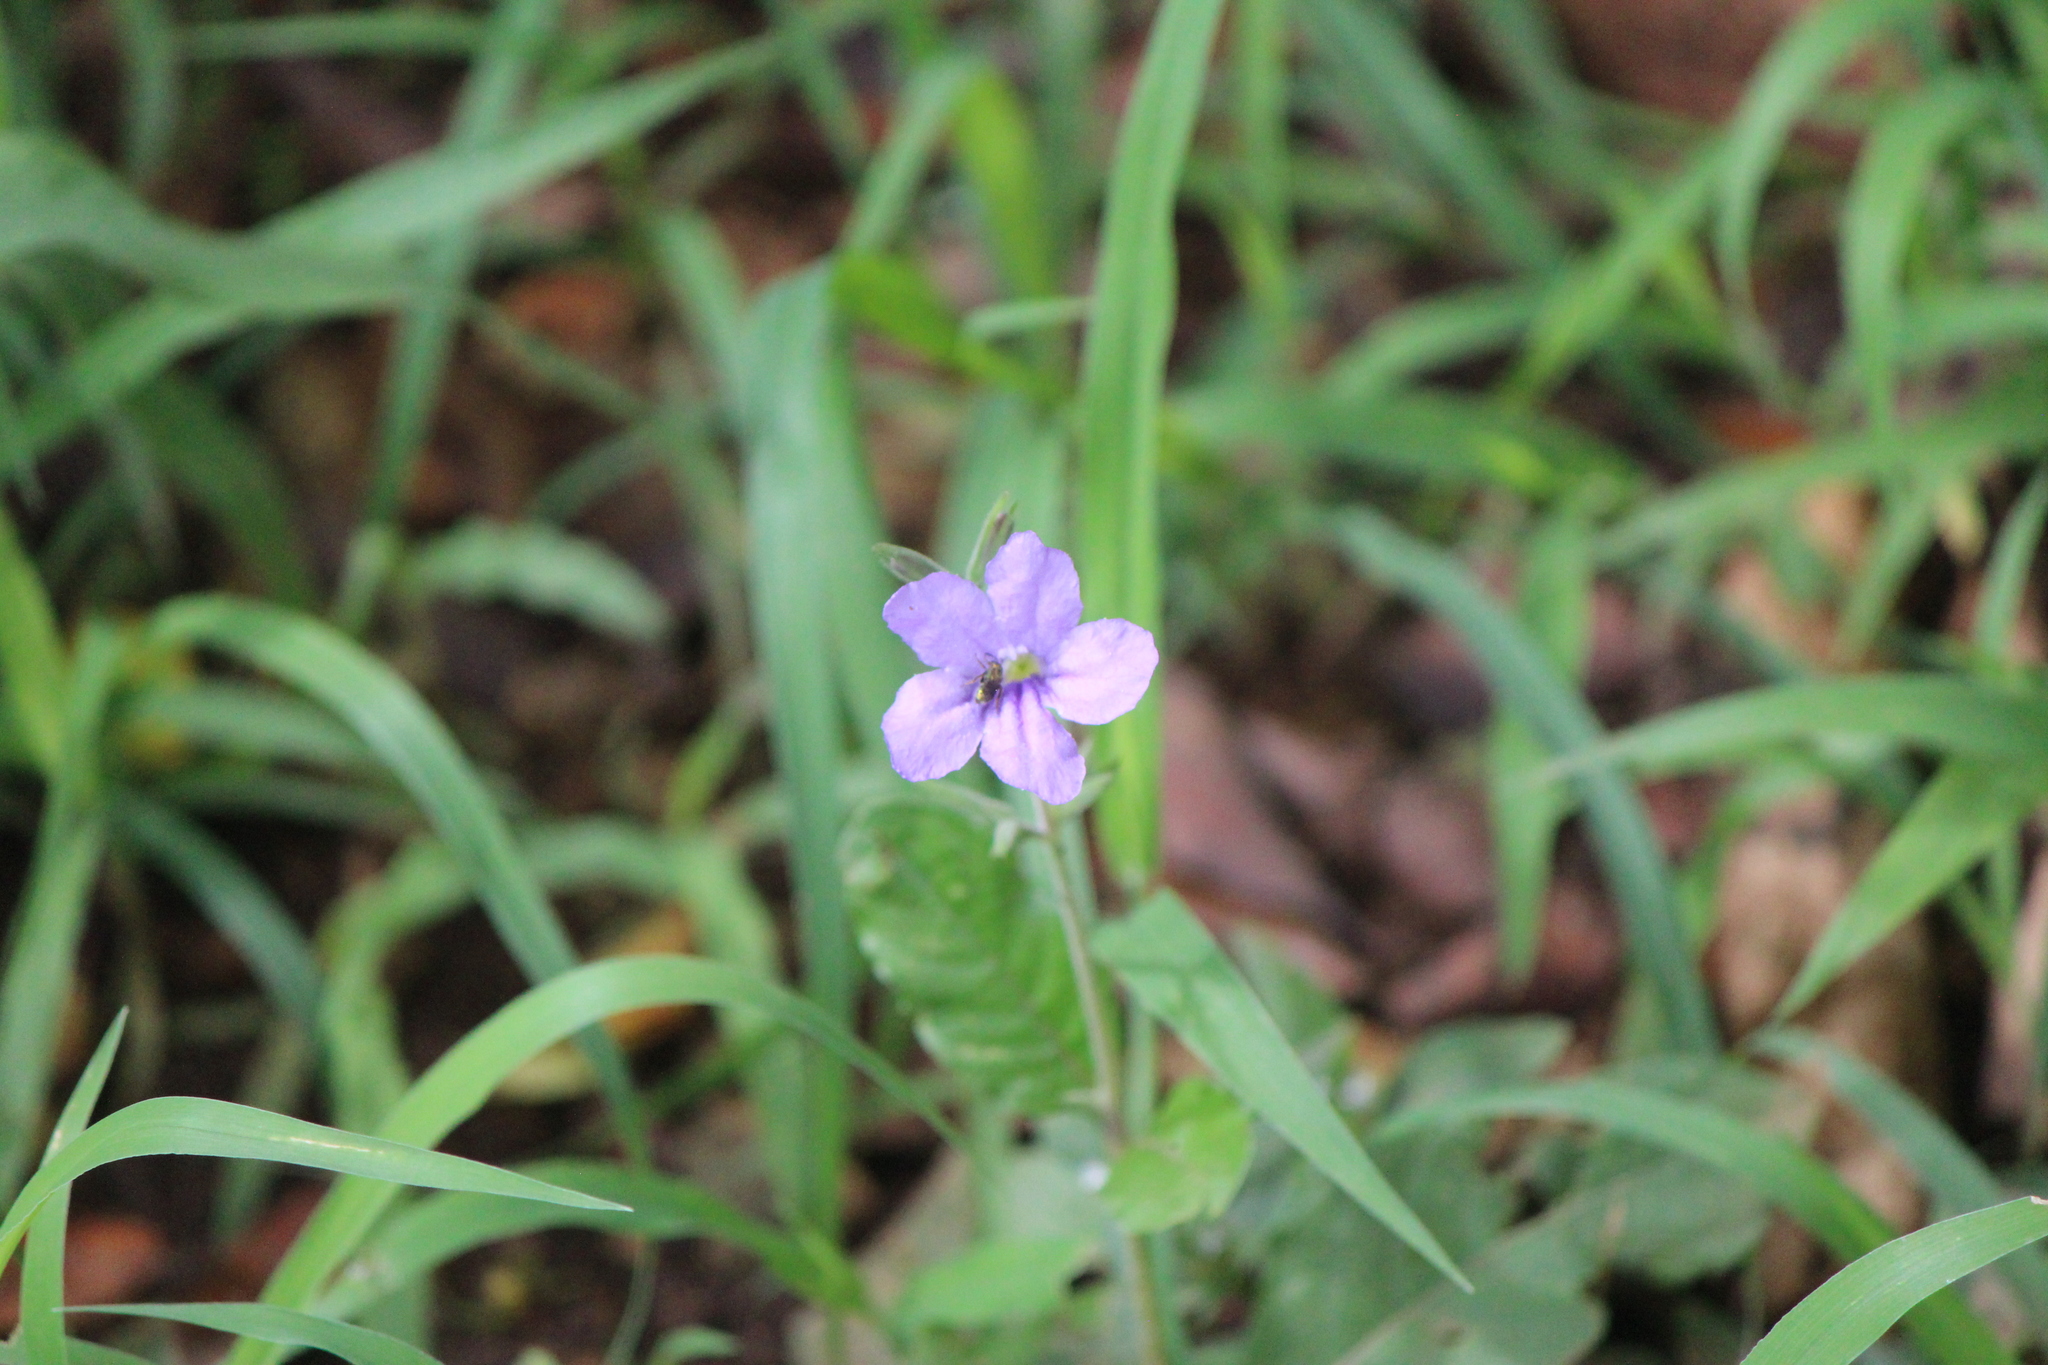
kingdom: Plantae
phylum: Tracheophyta
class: Magnoliopsida
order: Lamiales
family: Acanthaceae
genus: Ruellia
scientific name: Ruellia ciliatiflora
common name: Hairyflower wild petunia
